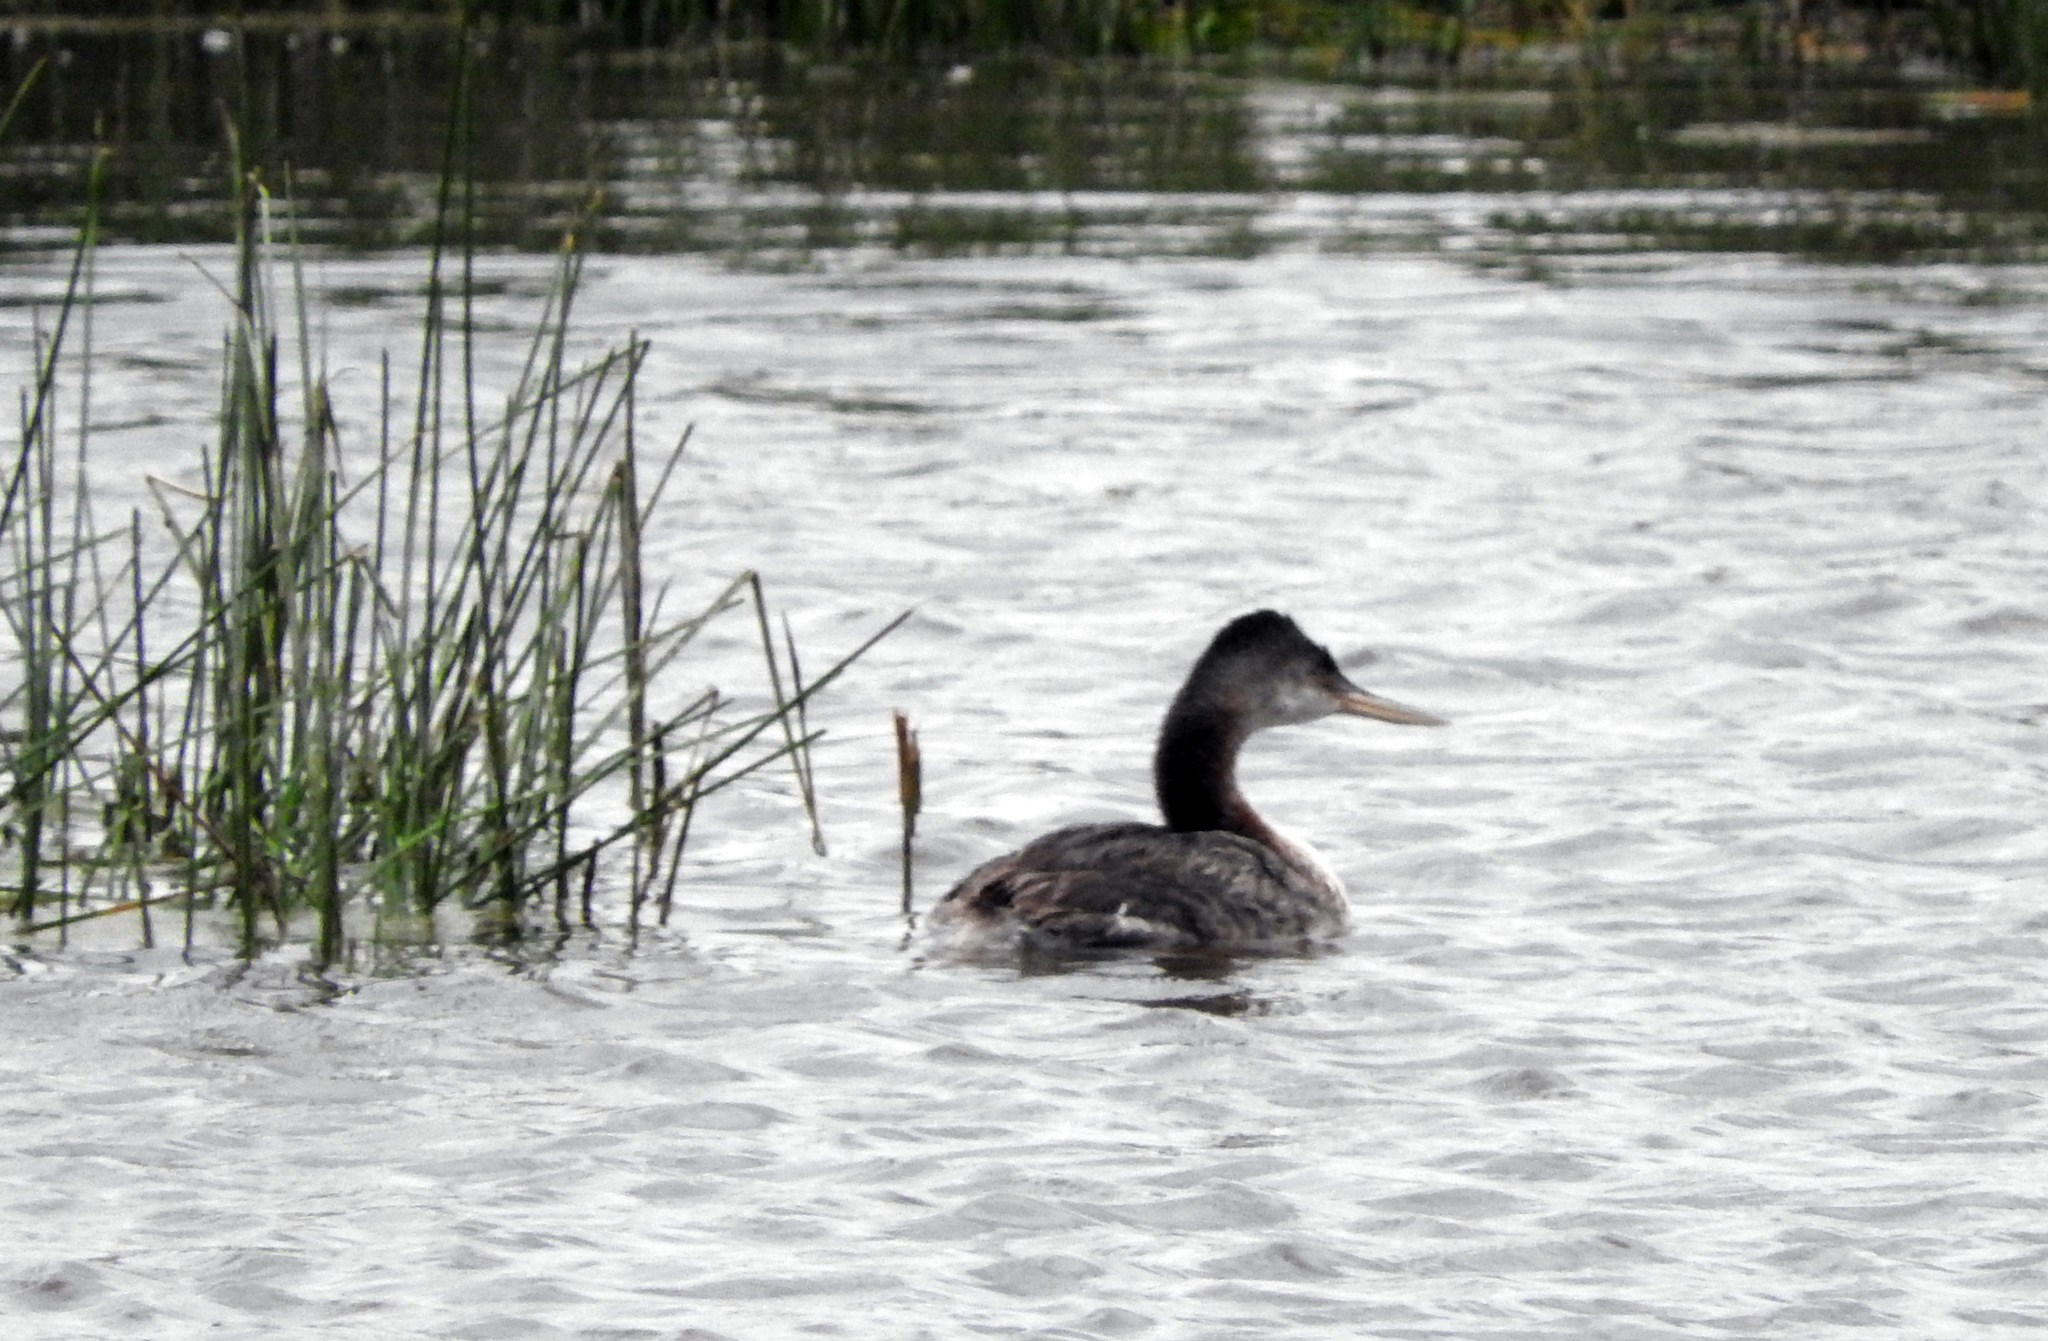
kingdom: Animalia
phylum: Chordata
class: Aves
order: Podicipediformes
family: Podicipedidae
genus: Podiceps
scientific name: Podiceps major
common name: Great grebe
